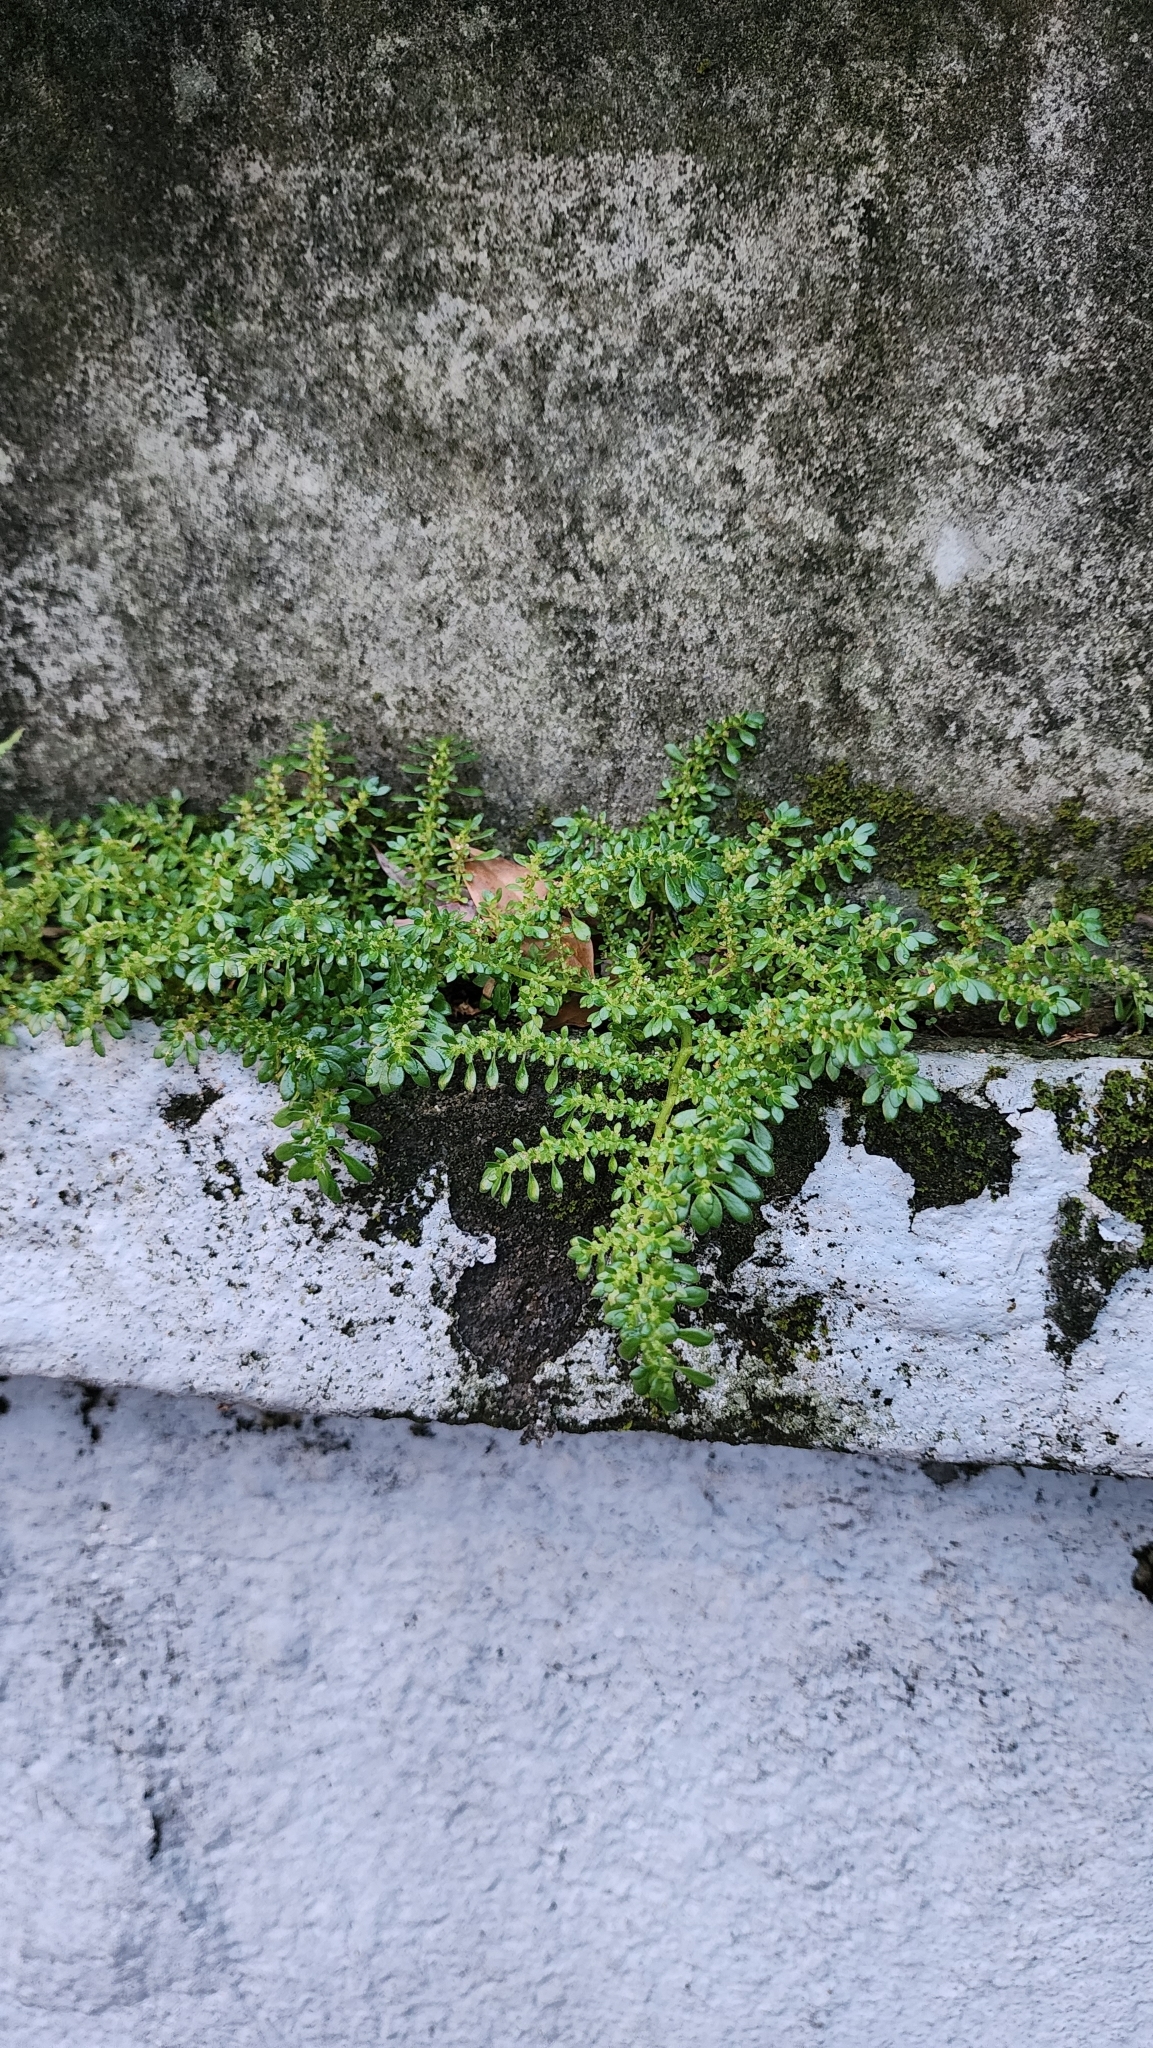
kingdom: Plantae
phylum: Tracheophyta
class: Magnoliopsida
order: Rosales
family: Urticaceae
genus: Pilea
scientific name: Pilea microphylla
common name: Artillery-plant
